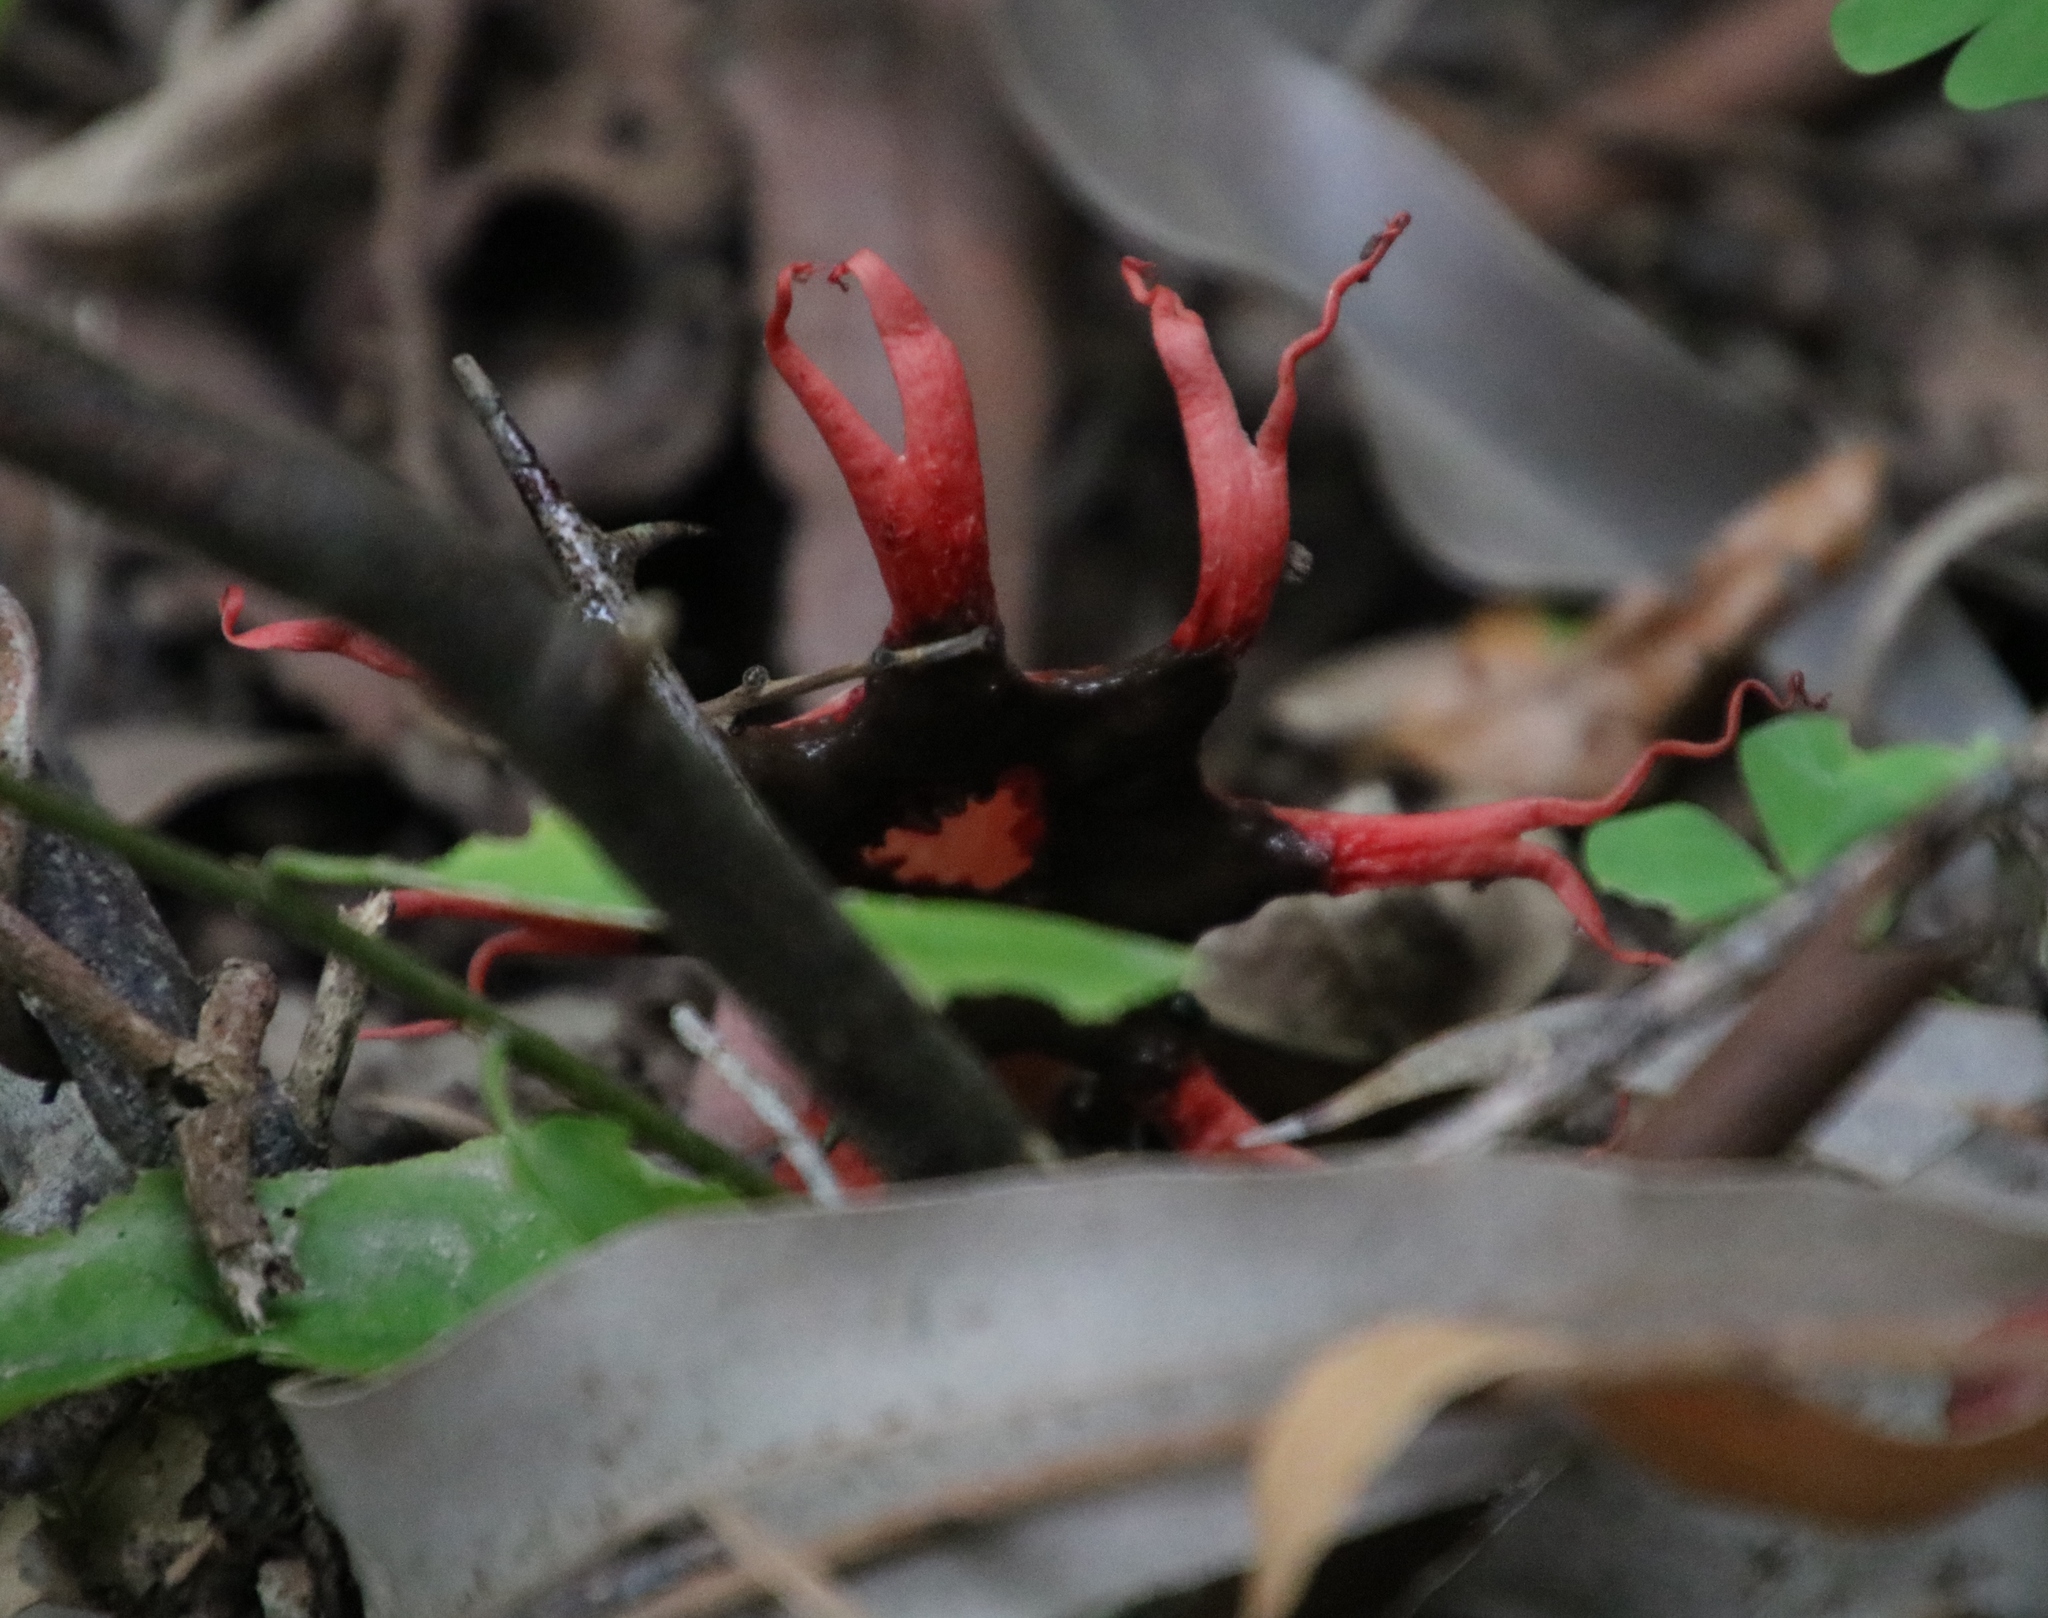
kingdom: Fungi
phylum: Basidiomycota
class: Agaricomycetes
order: Phallales
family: Phallaceae
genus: Aseroe
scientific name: Aseroe rubra
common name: Starfish fungus
